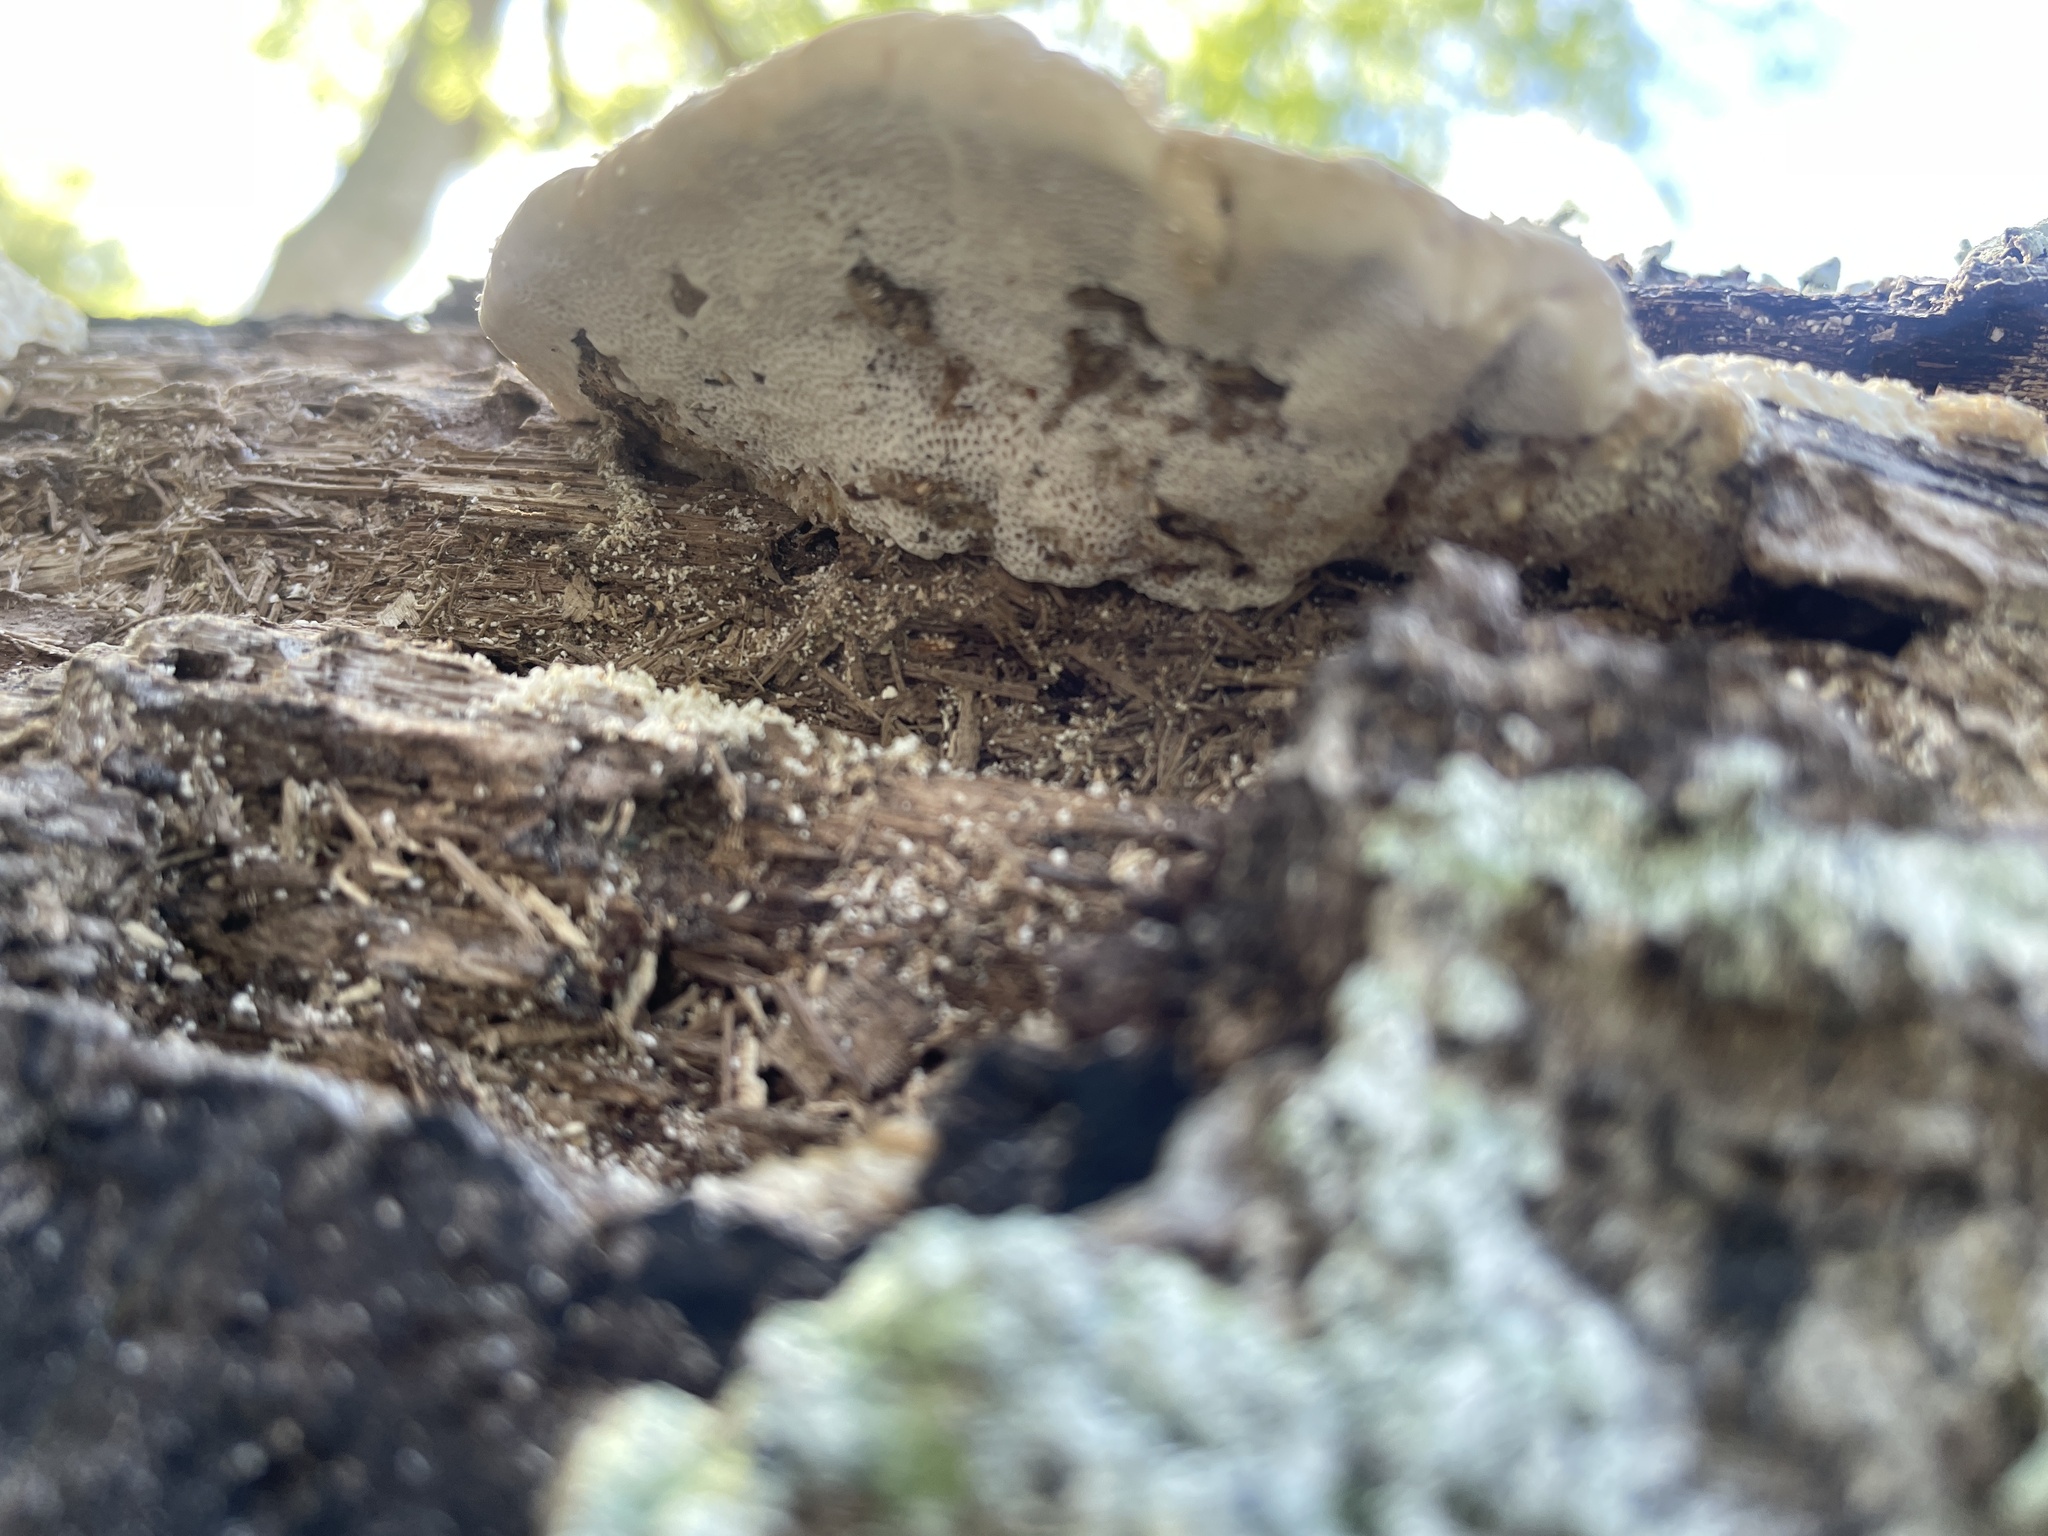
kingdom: Fungi
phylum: Basidiomycota
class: Agaricomycetes
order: Polyporales
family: Polyporaceae
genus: Trametes
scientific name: Trametes lactinea
